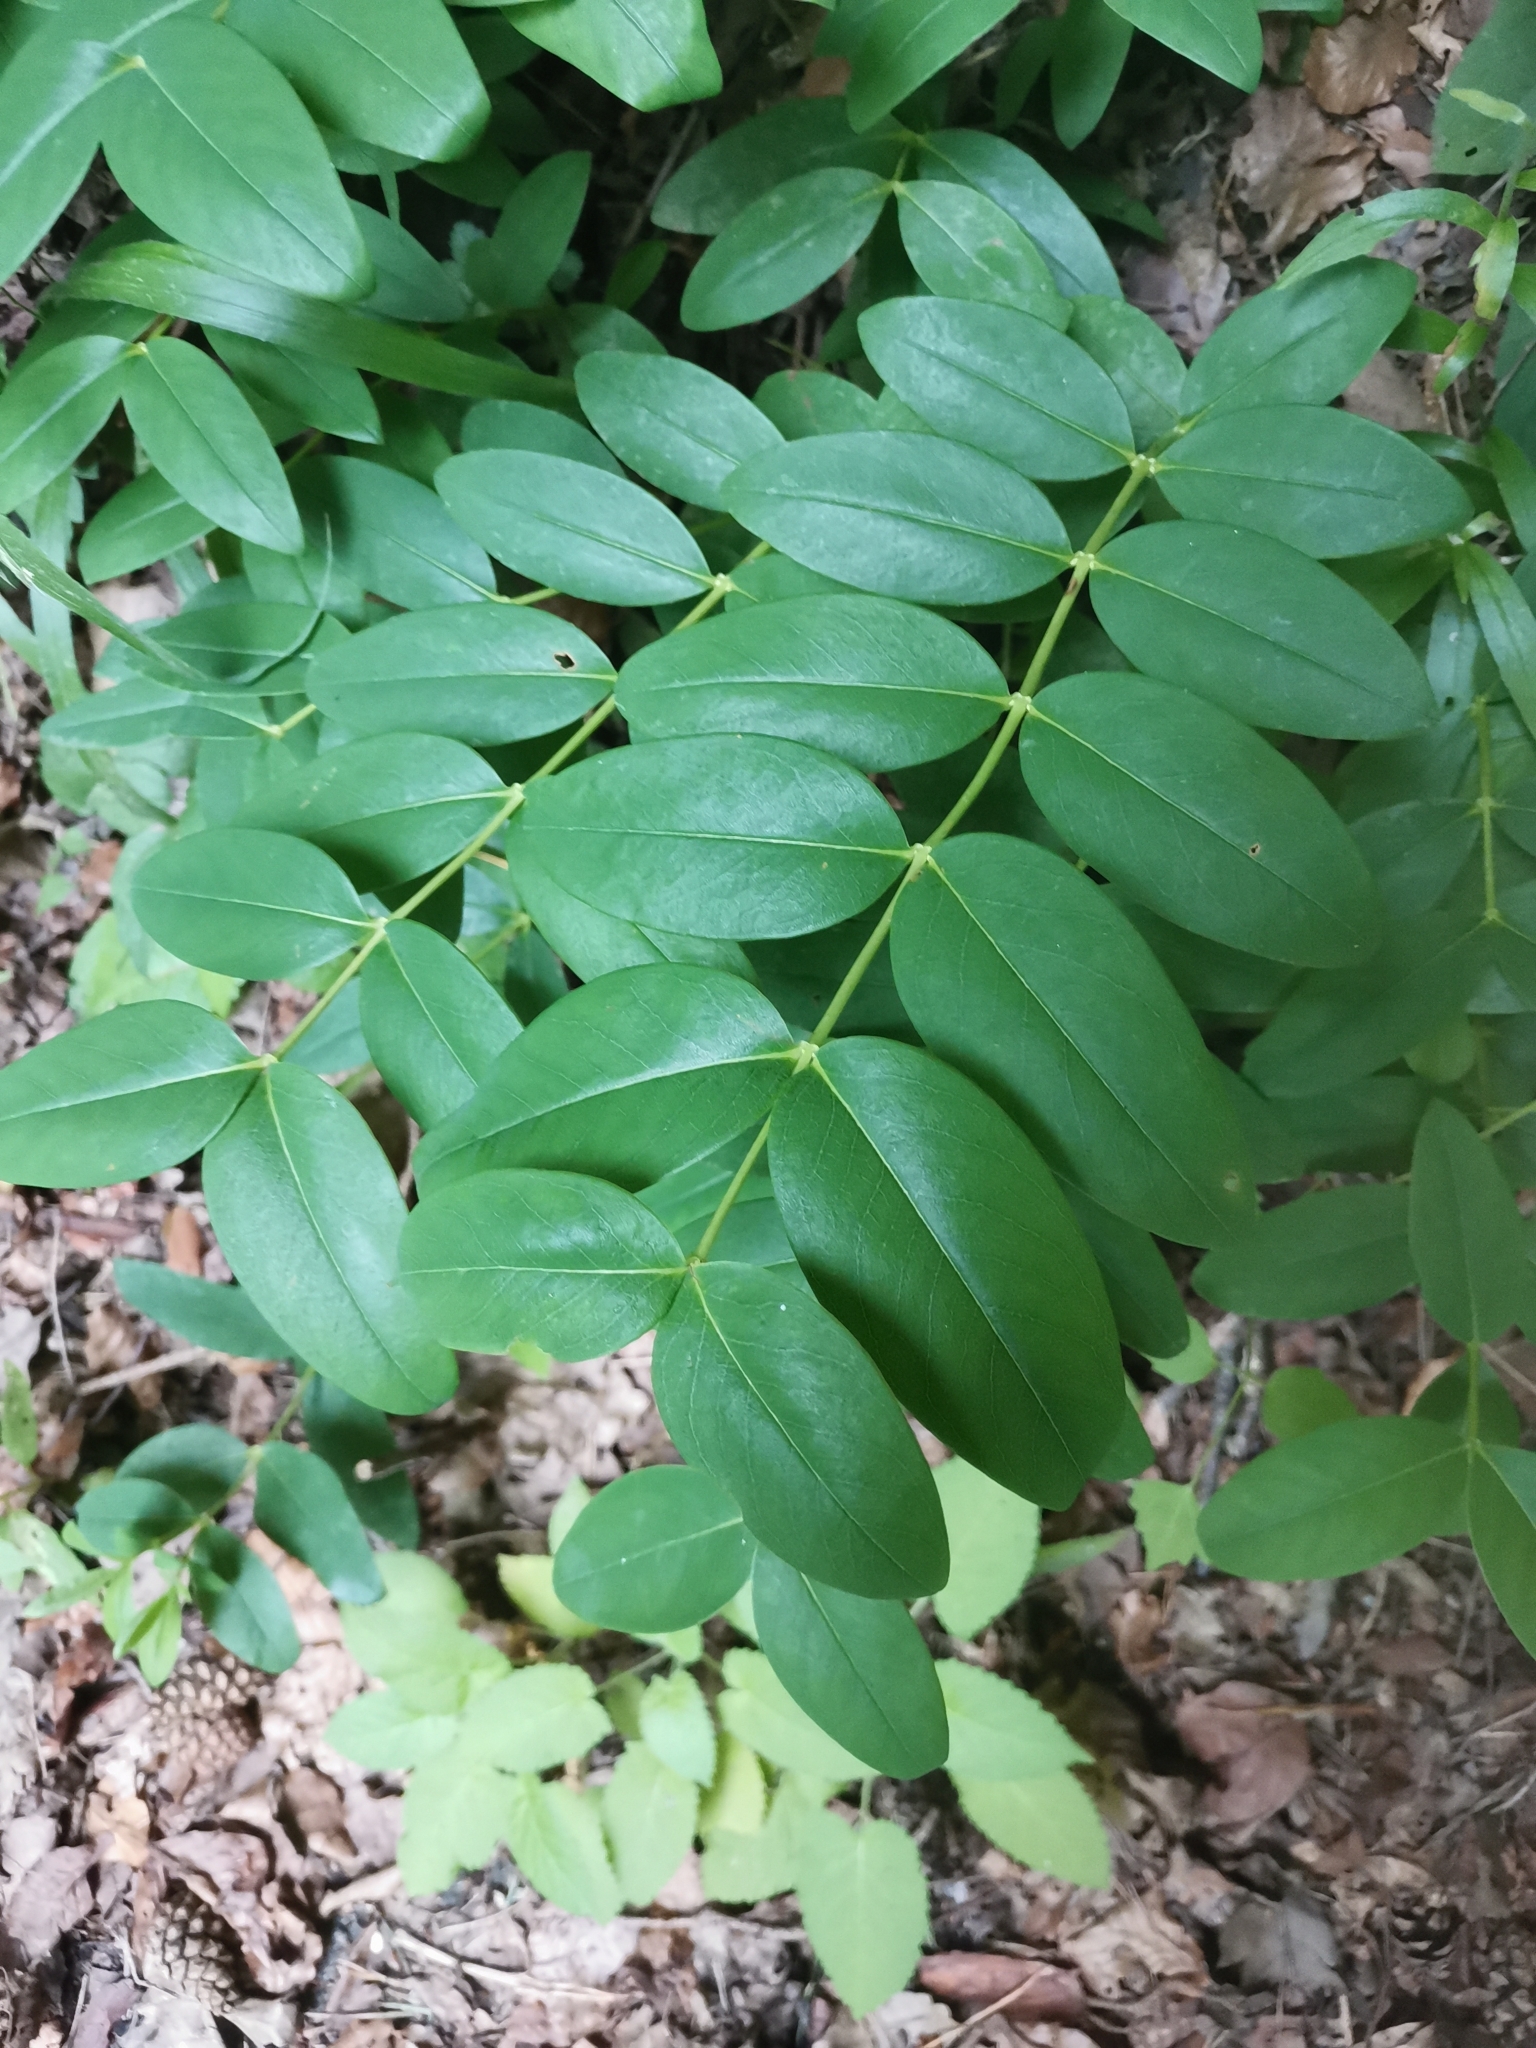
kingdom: Plantae
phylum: Tracheophyta
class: Magnoliopsida
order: Malpighiales
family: Hypericaceae
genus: Hypericum
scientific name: Hypericum calycinum
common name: Rose-of-sharon
